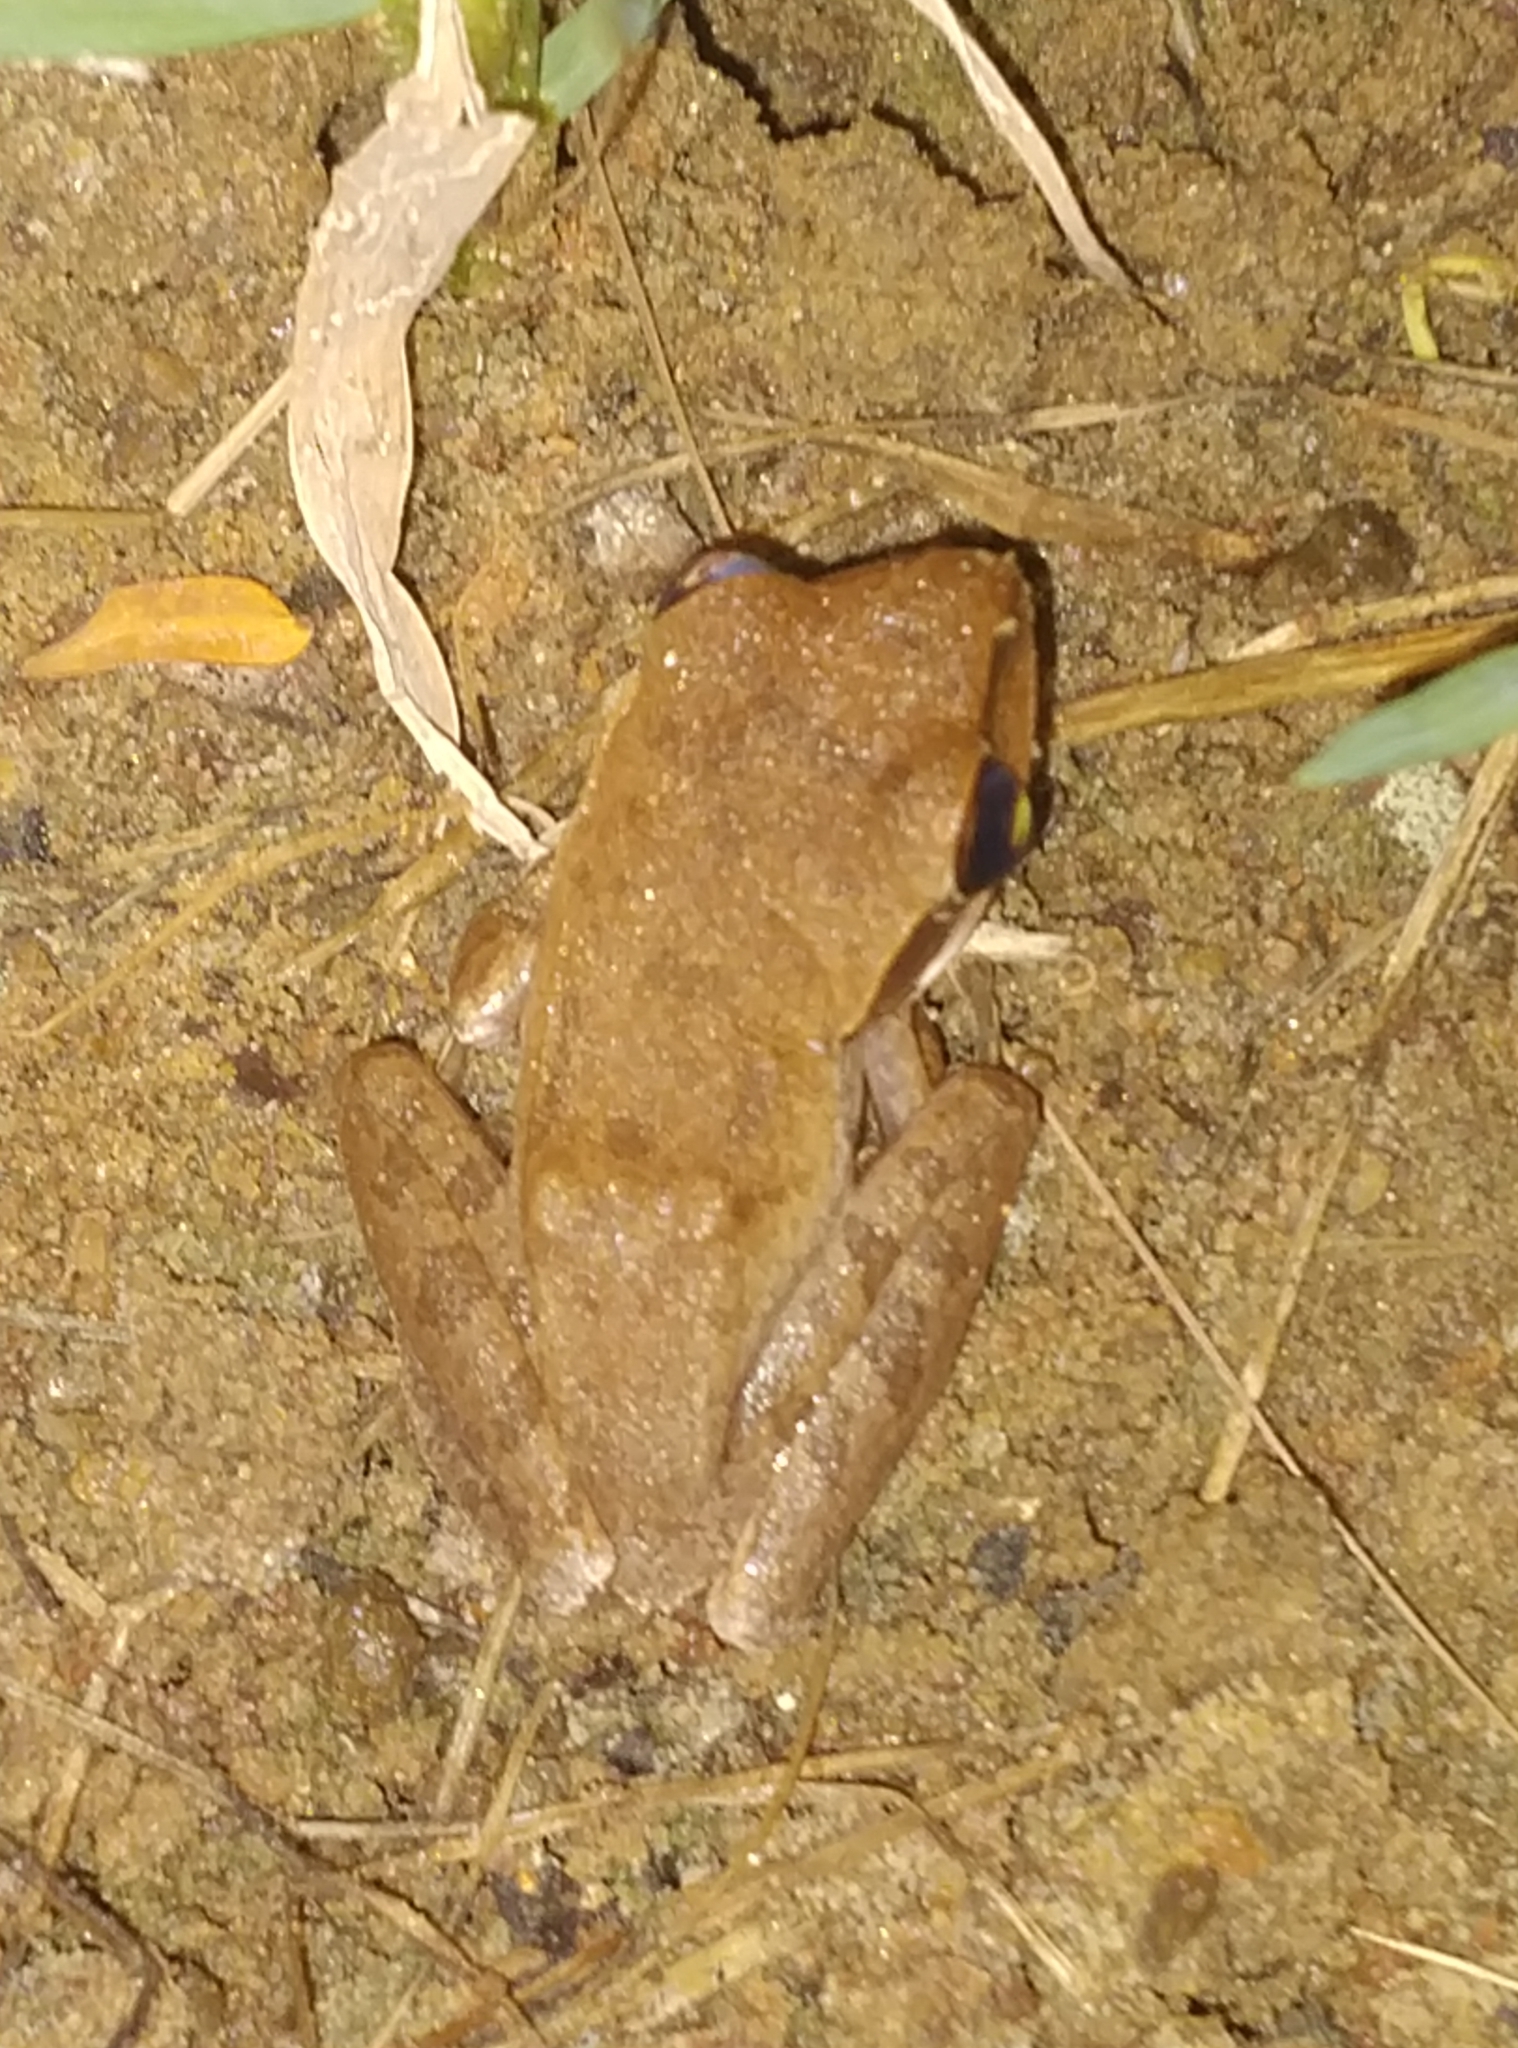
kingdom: Animalia
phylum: Chordata
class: Amphibia
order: Anura
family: Rhacophoridae
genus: Polypedates
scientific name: Polypedates maculatus
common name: Himalayan tree frog
